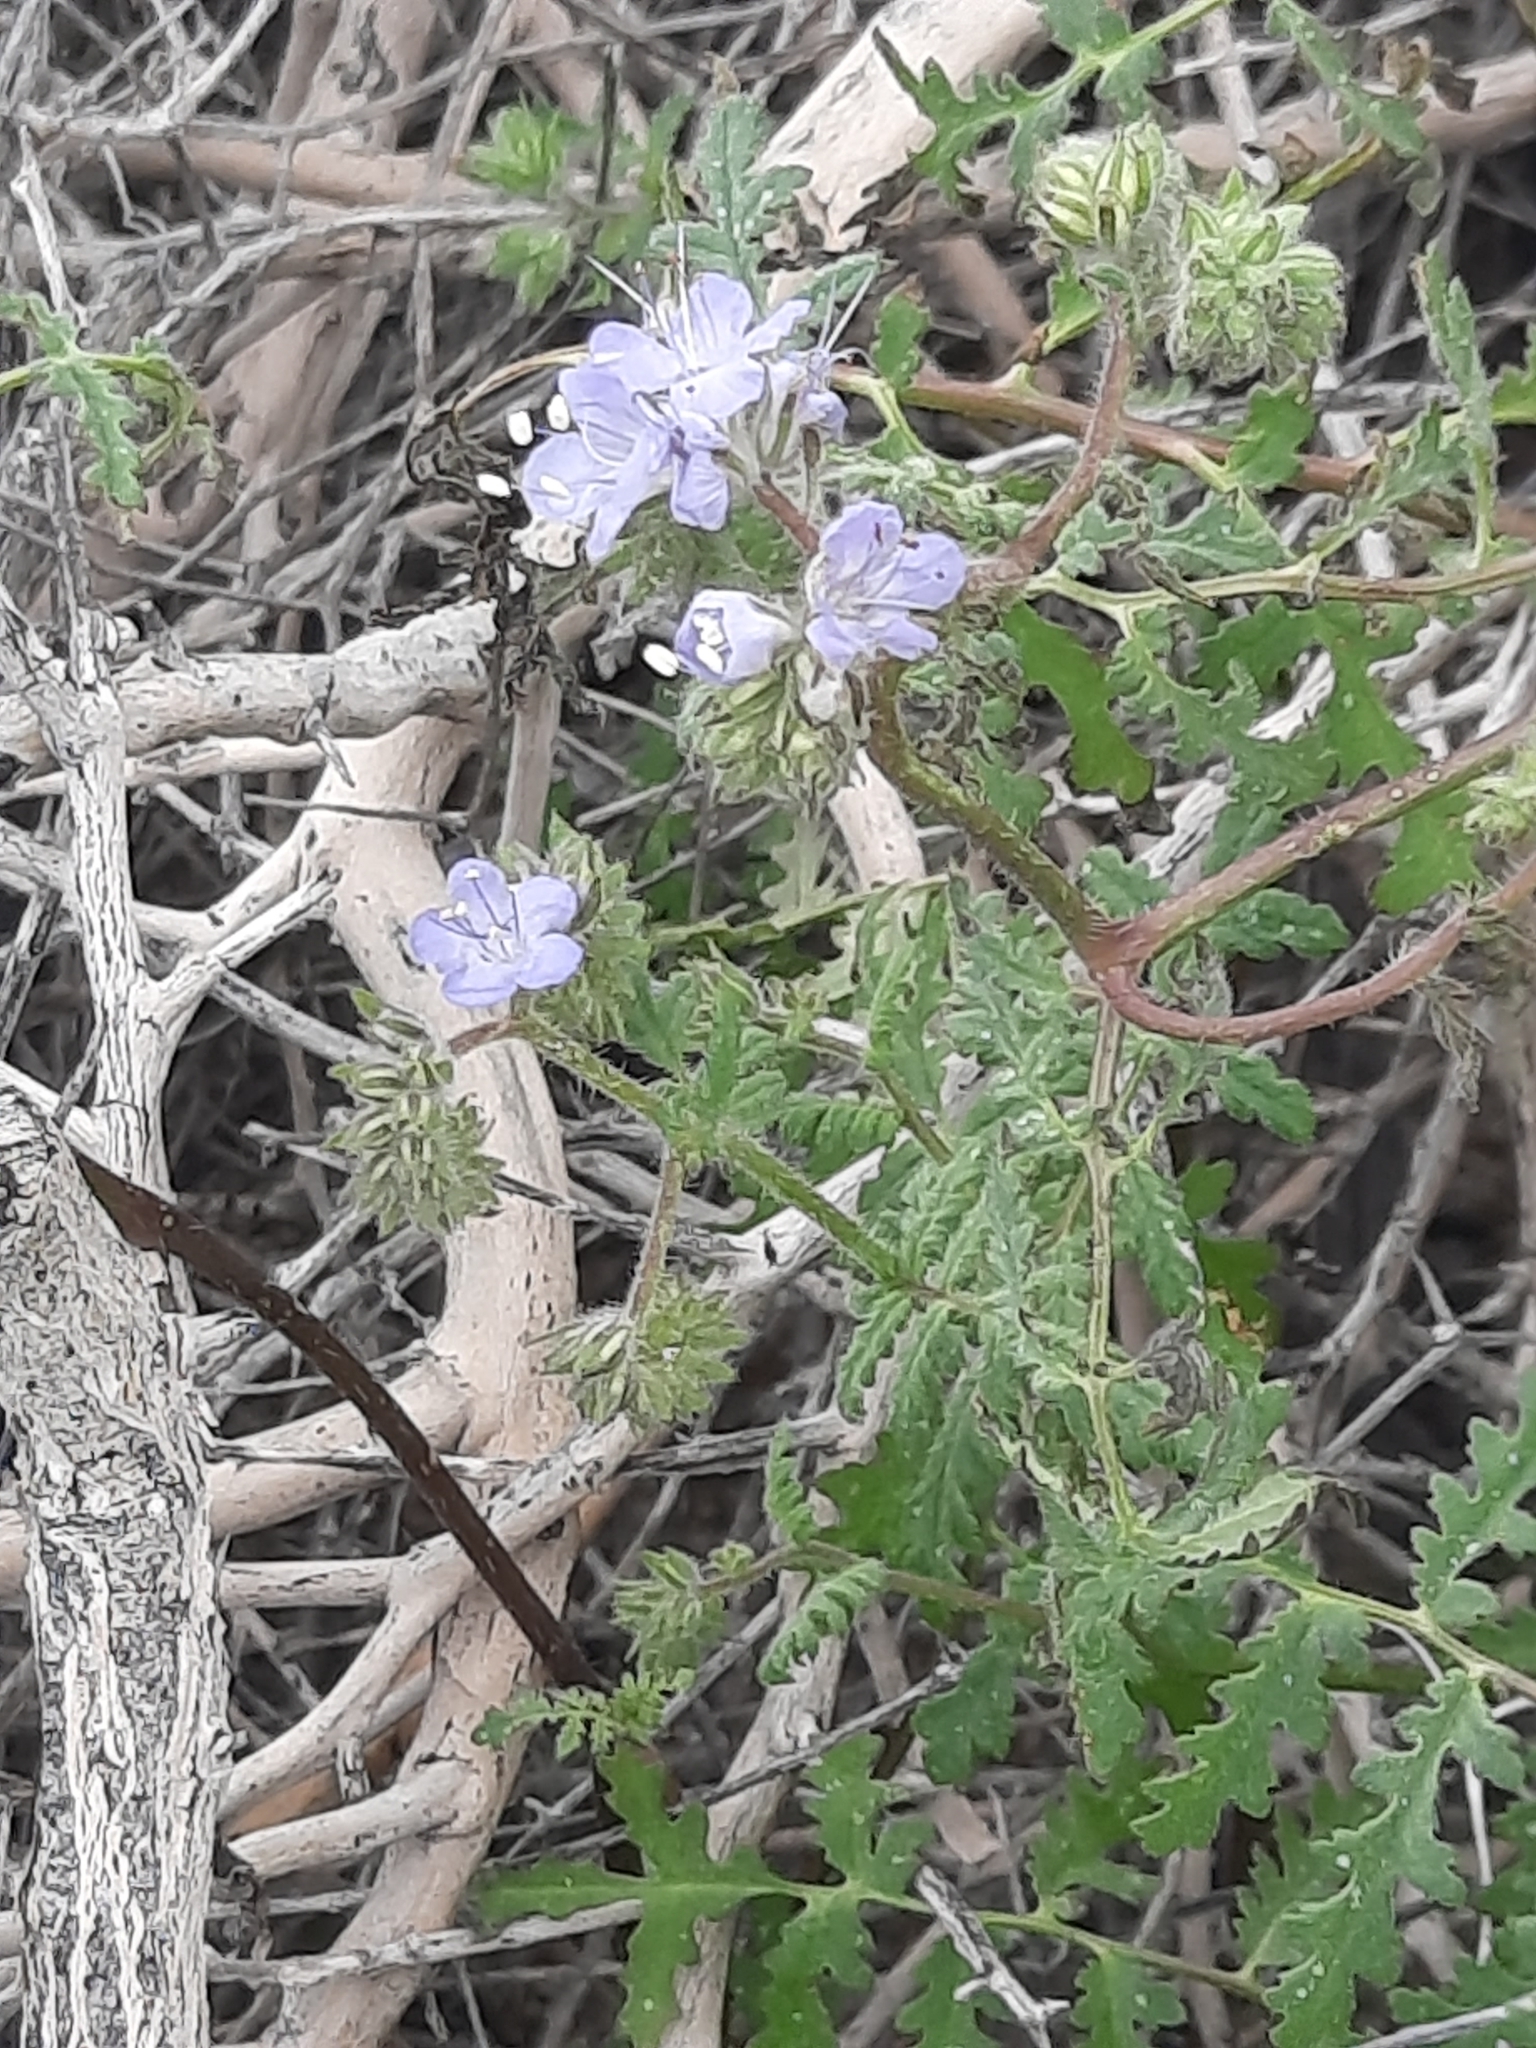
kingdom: Plantae
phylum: Tracheophyta
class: Magnoliopsida
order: Boraginales
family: Hydrophyllaceae
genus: Phacelia
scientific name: Phacelia distans
